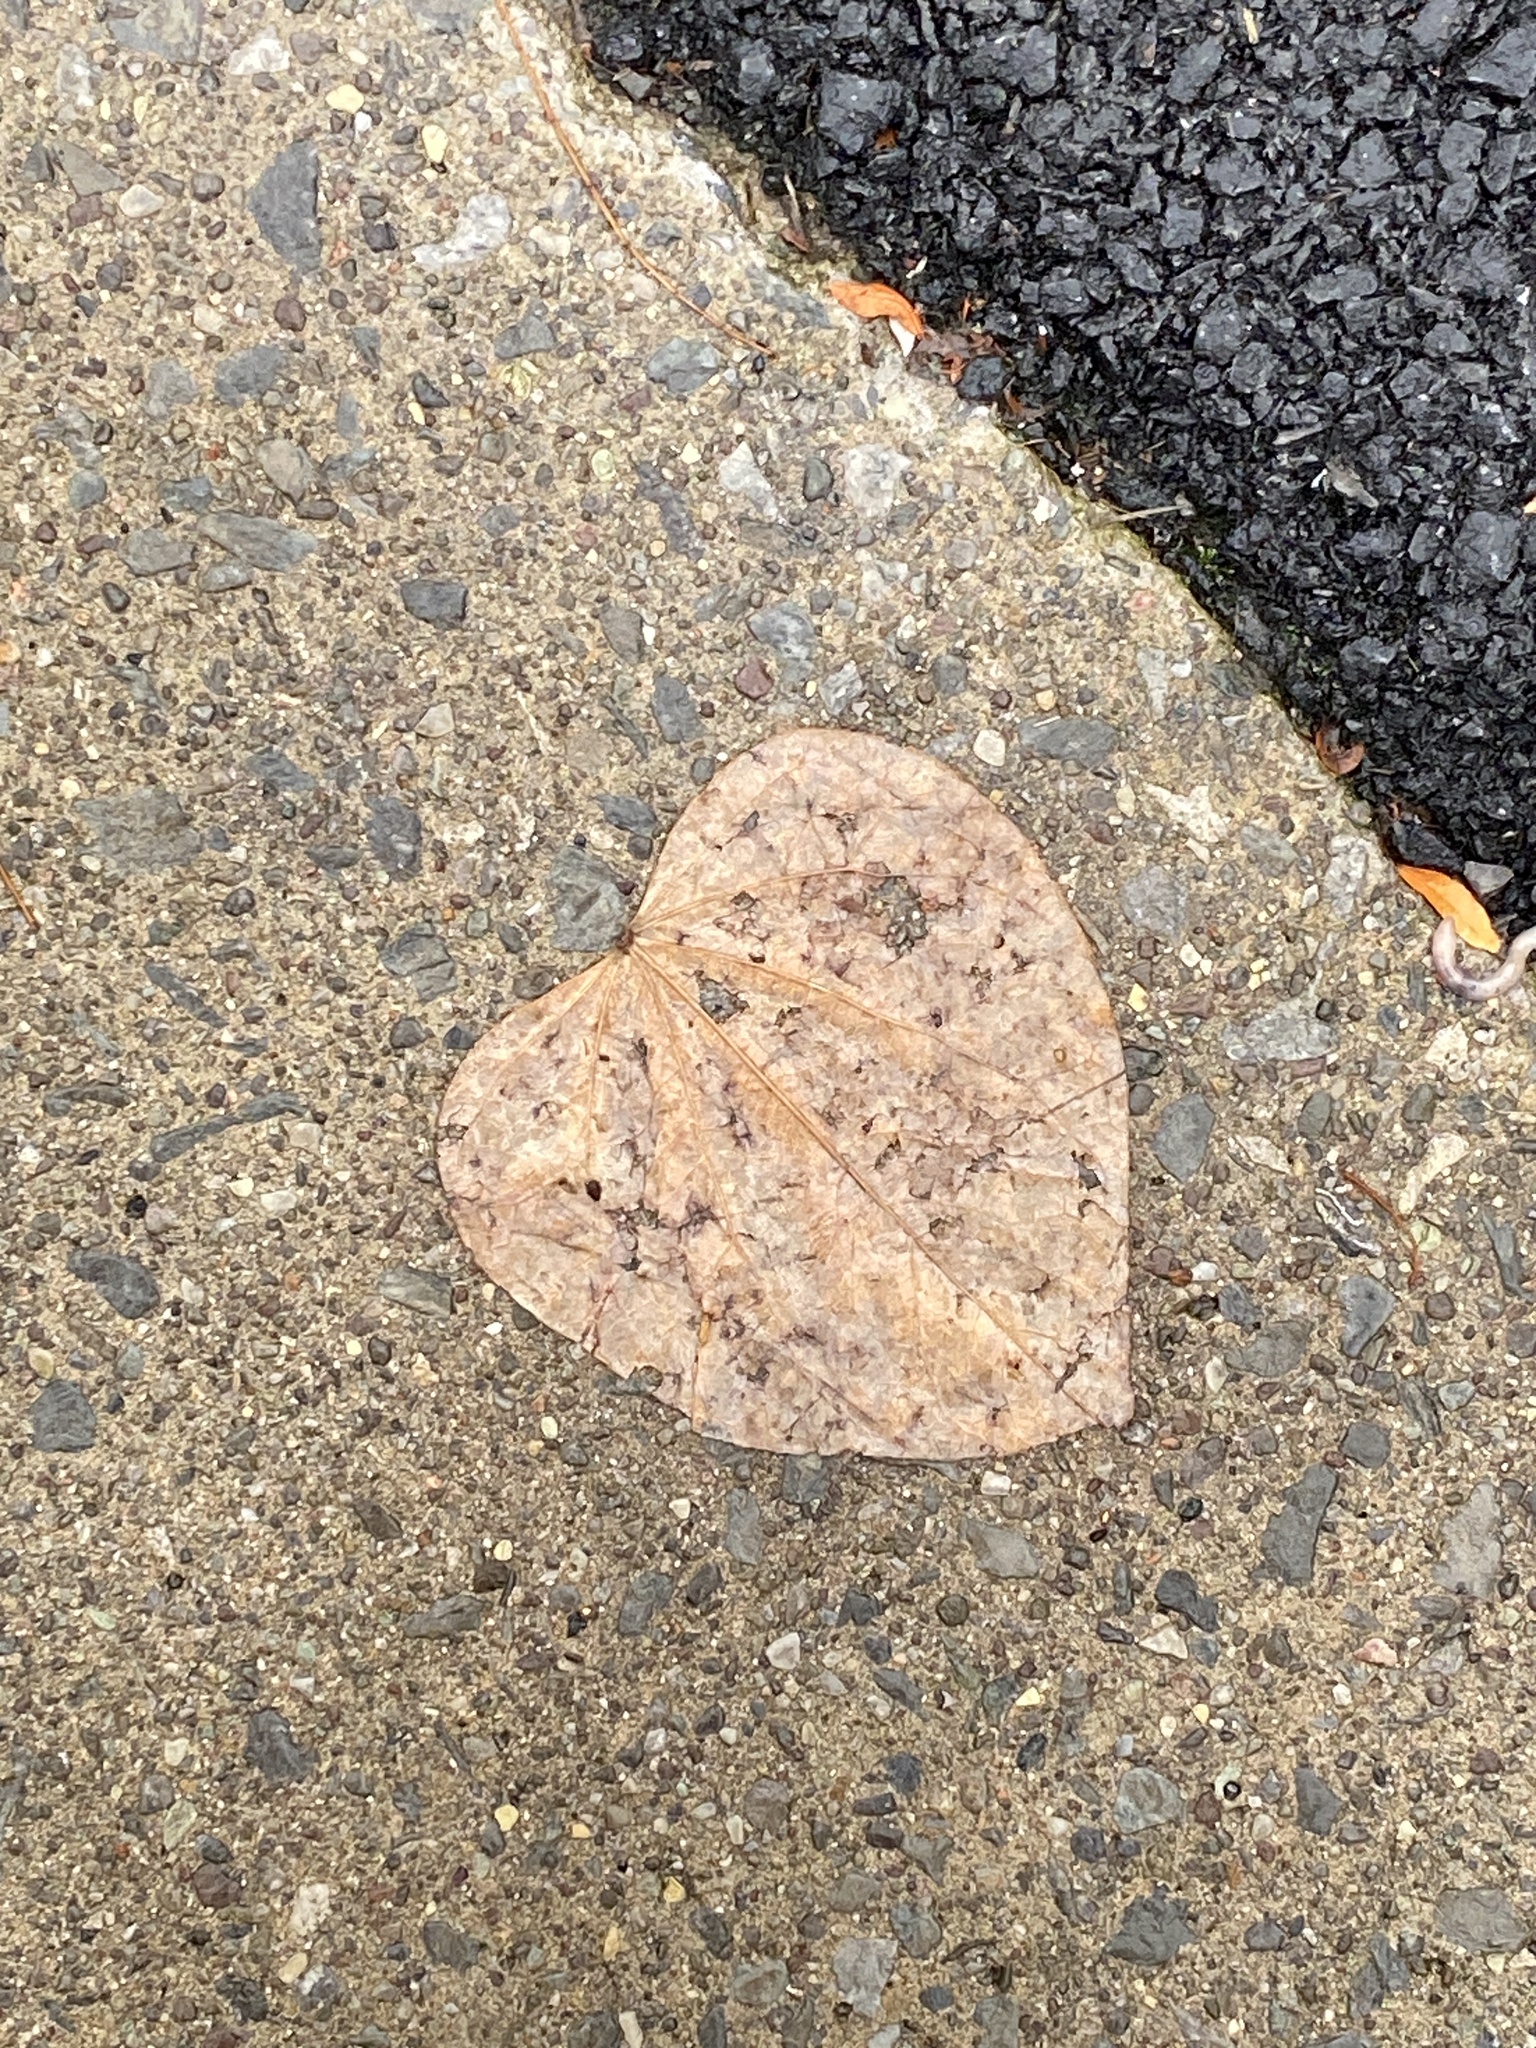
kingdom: Plantae
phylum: Tracheophyta
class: Magnoliopsida
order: Fabales
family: Fabaceae
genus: Cercis
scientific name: Cercis canadensis
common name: Eastern redbud
